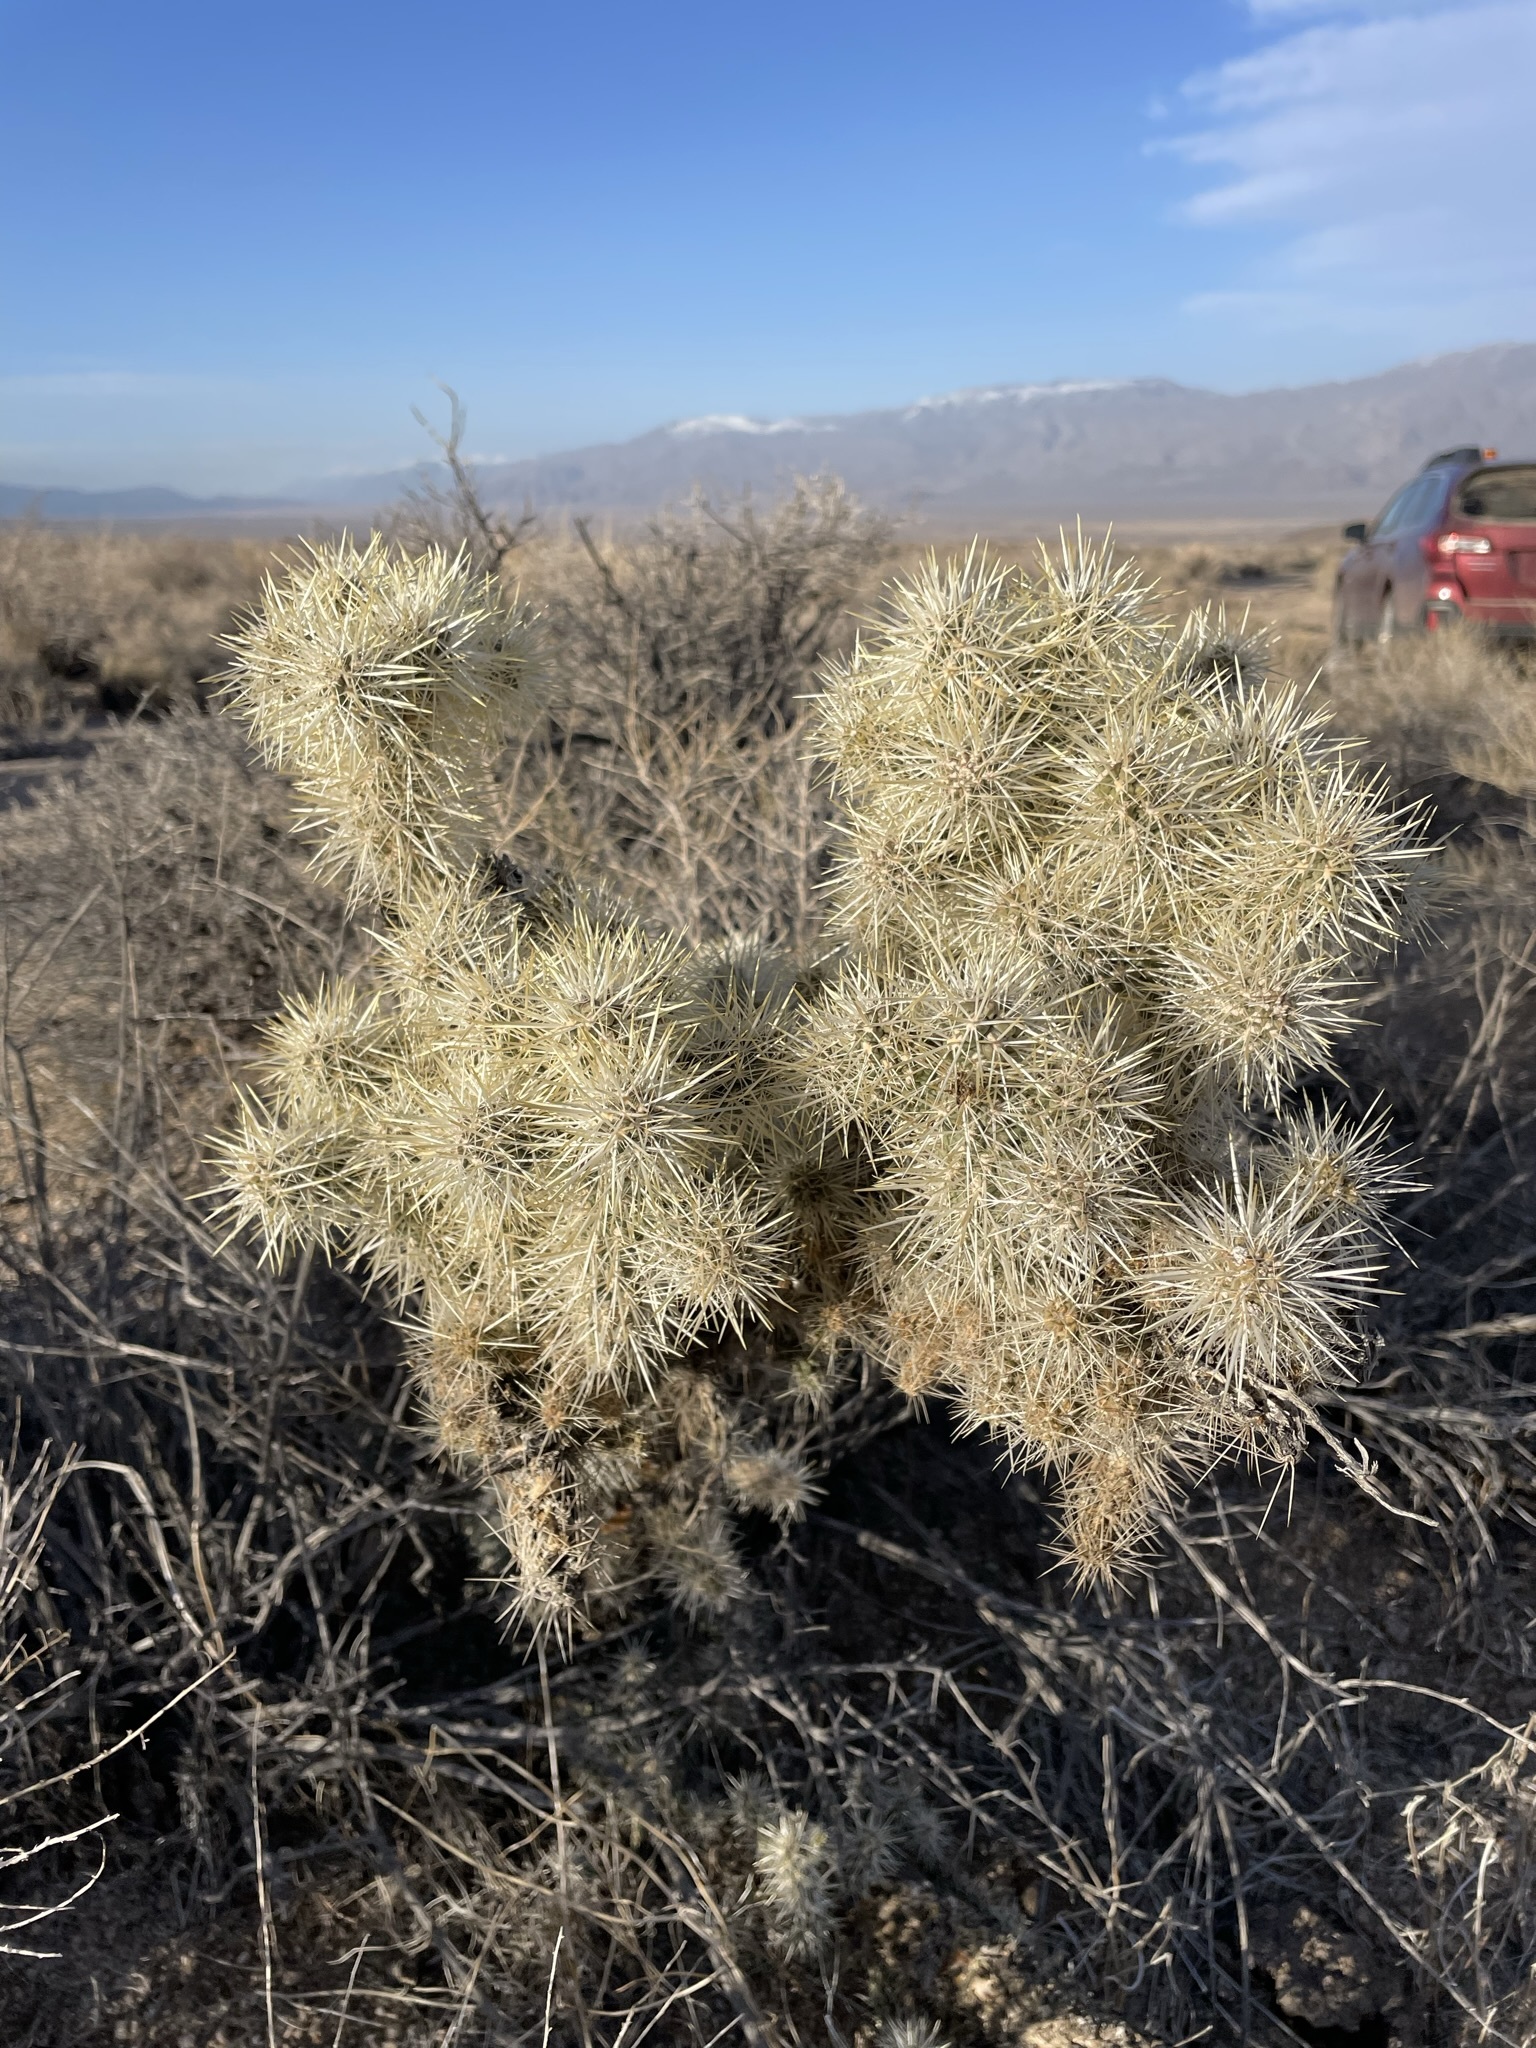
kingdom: Plantae
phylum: Tracheophyta
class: Magnoliopsida
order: Caryophyllales
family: Cactaceae
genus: Cylindropuntia
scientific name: Cylindropuntia echinocarpa
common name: Ground cholla
